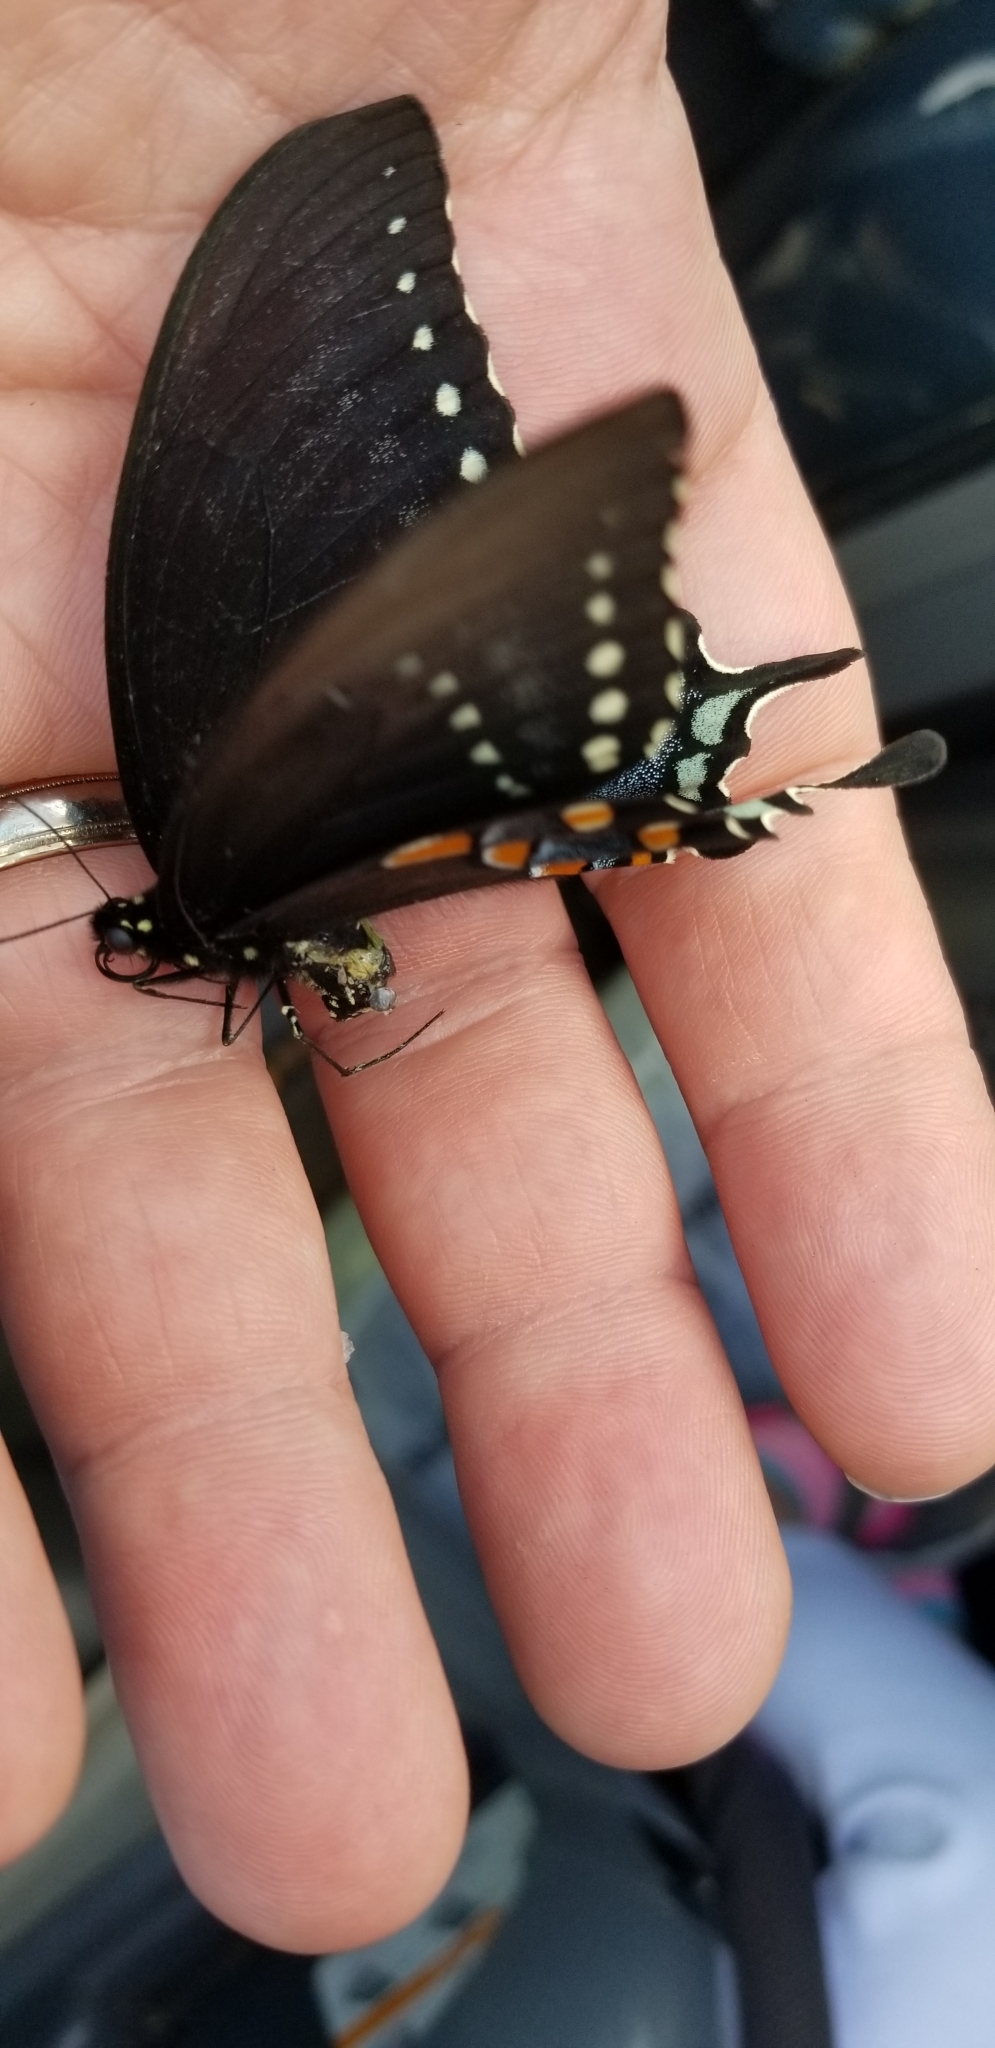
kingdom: Animalia
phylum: Arthropoda
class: Insecta
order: Lepidoptera
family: Papilionidae
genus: Papilio
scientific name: Papilio troilus
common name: Spicebush swallowtail
